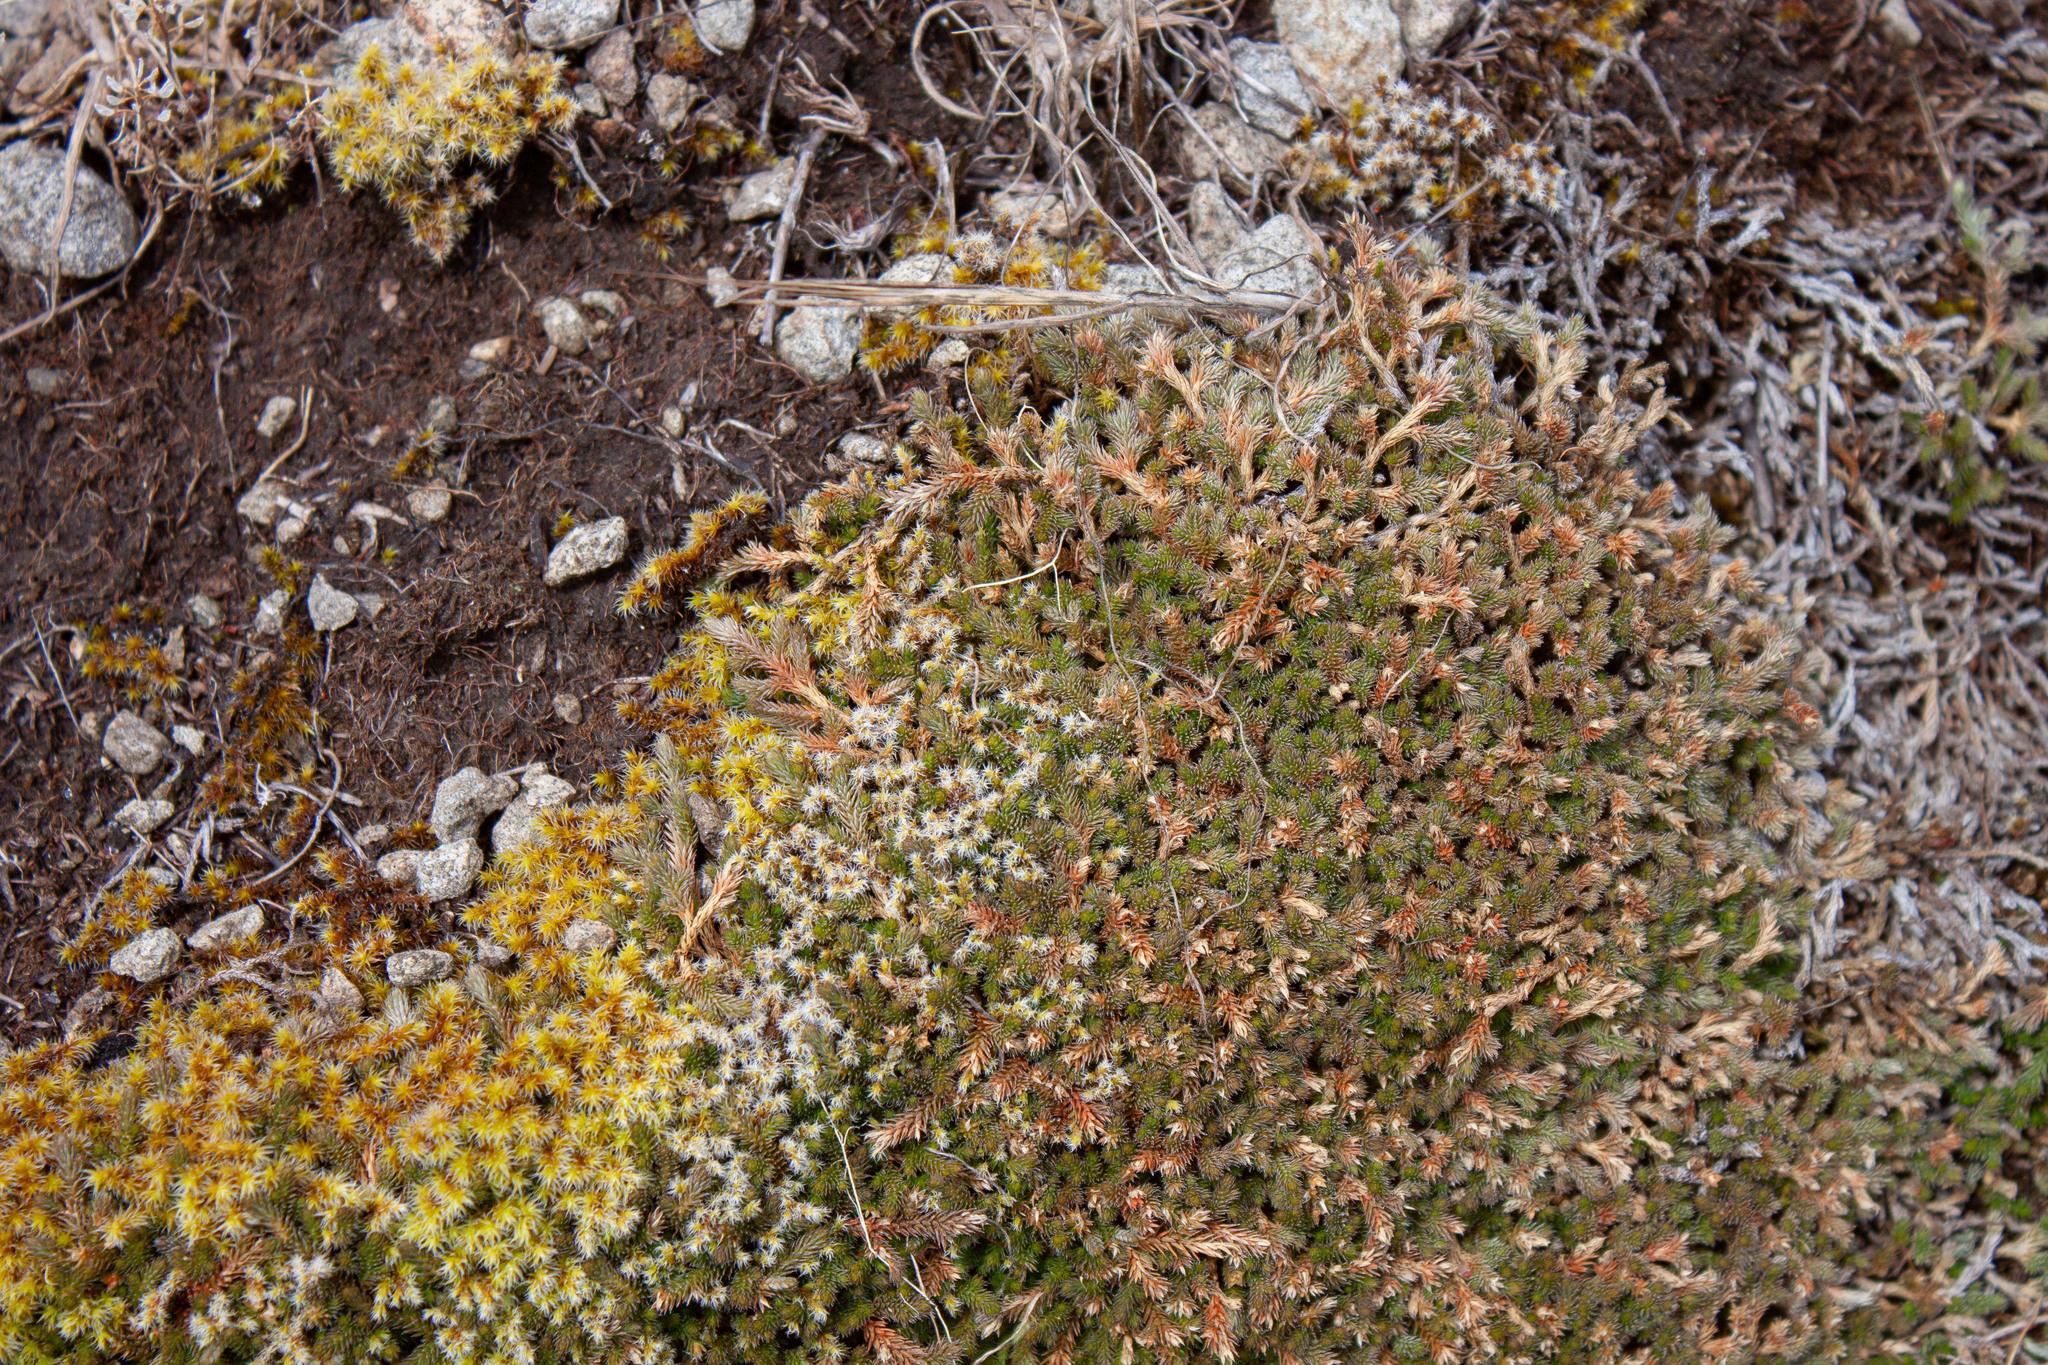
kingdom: Plantae
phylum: Tracheophyta
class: Lycopodiopsida
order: Selaginellales
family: Selaginellaceae
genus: Selaginella
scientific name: Selaginella wallacei
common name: Wallace's selaginella
